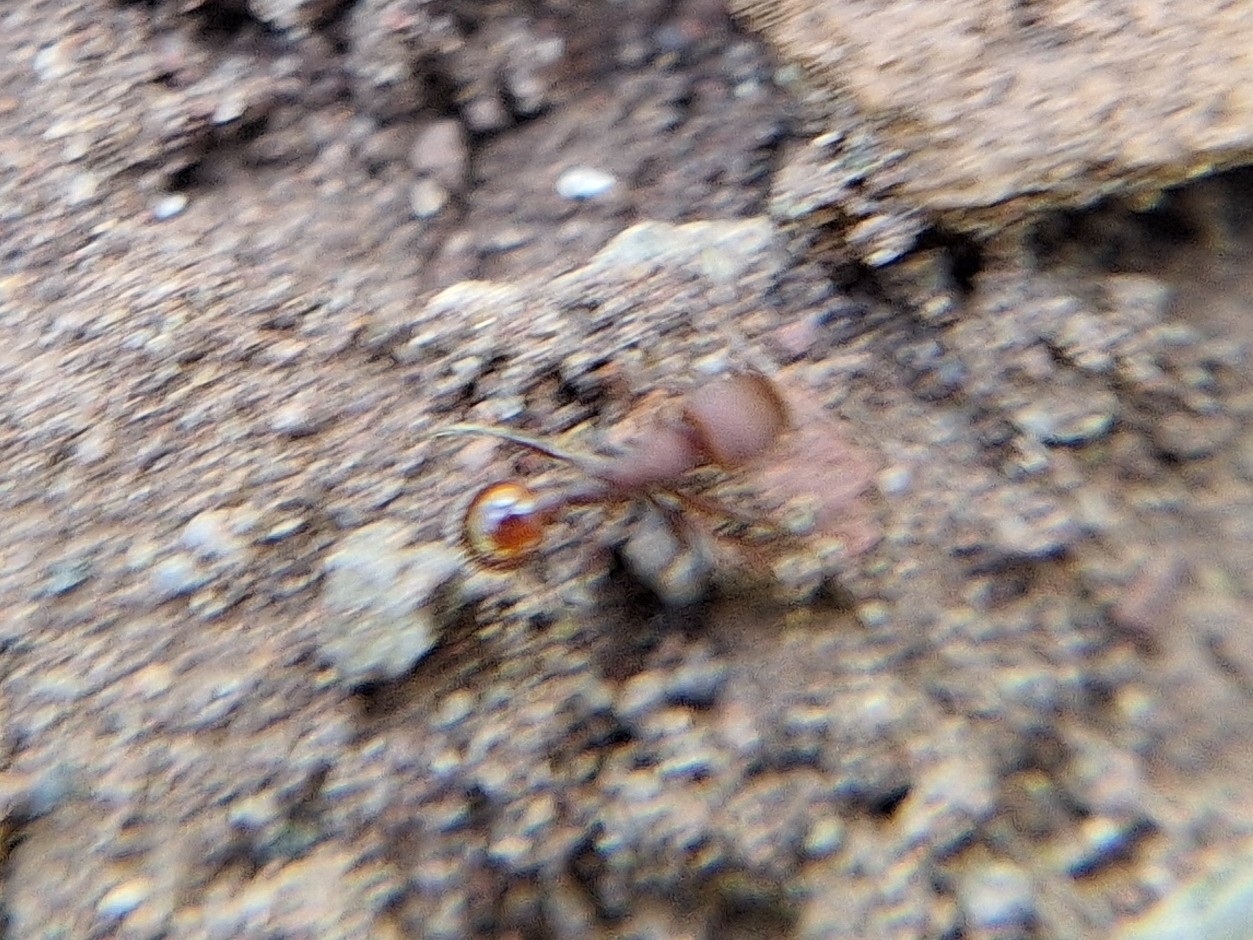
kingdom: Animalia
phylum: Arthropoda
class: Insecta
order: Hymenoptera
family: Formicidae
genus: Pogonomyrmex
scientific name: Pogonomyrmex huachucanus
